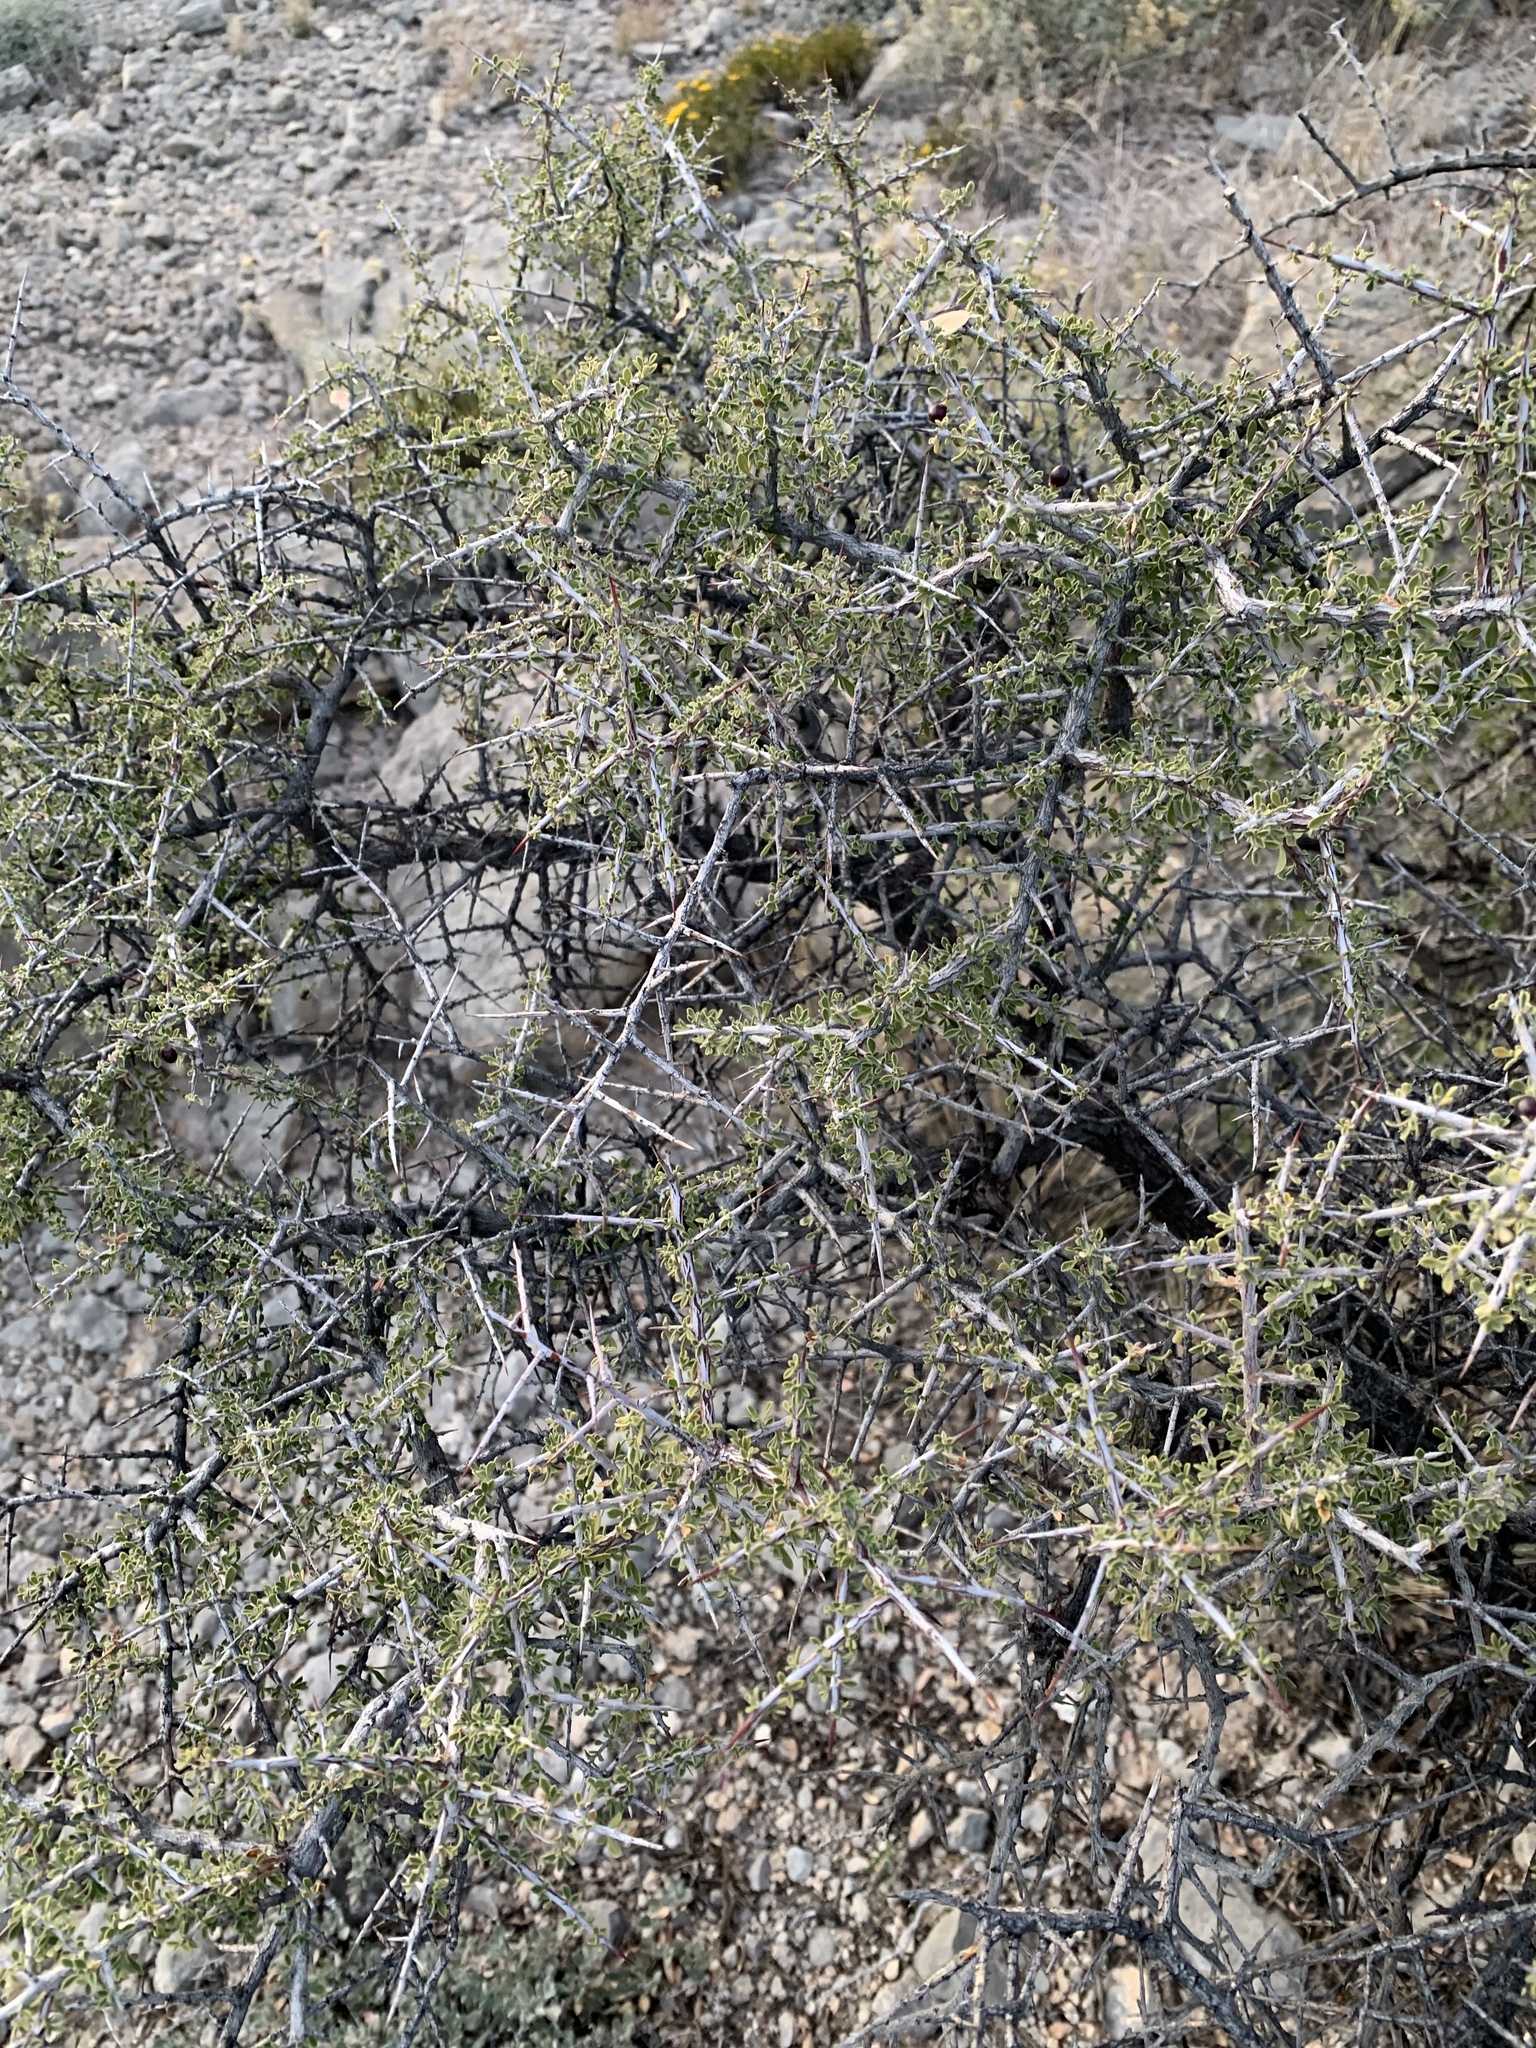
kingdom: Plantae
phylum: Tracheophyta
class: Magnoliopsida
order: Rosales
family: Rhamnaceae
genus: Condalia
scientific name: Condalia warnockii
